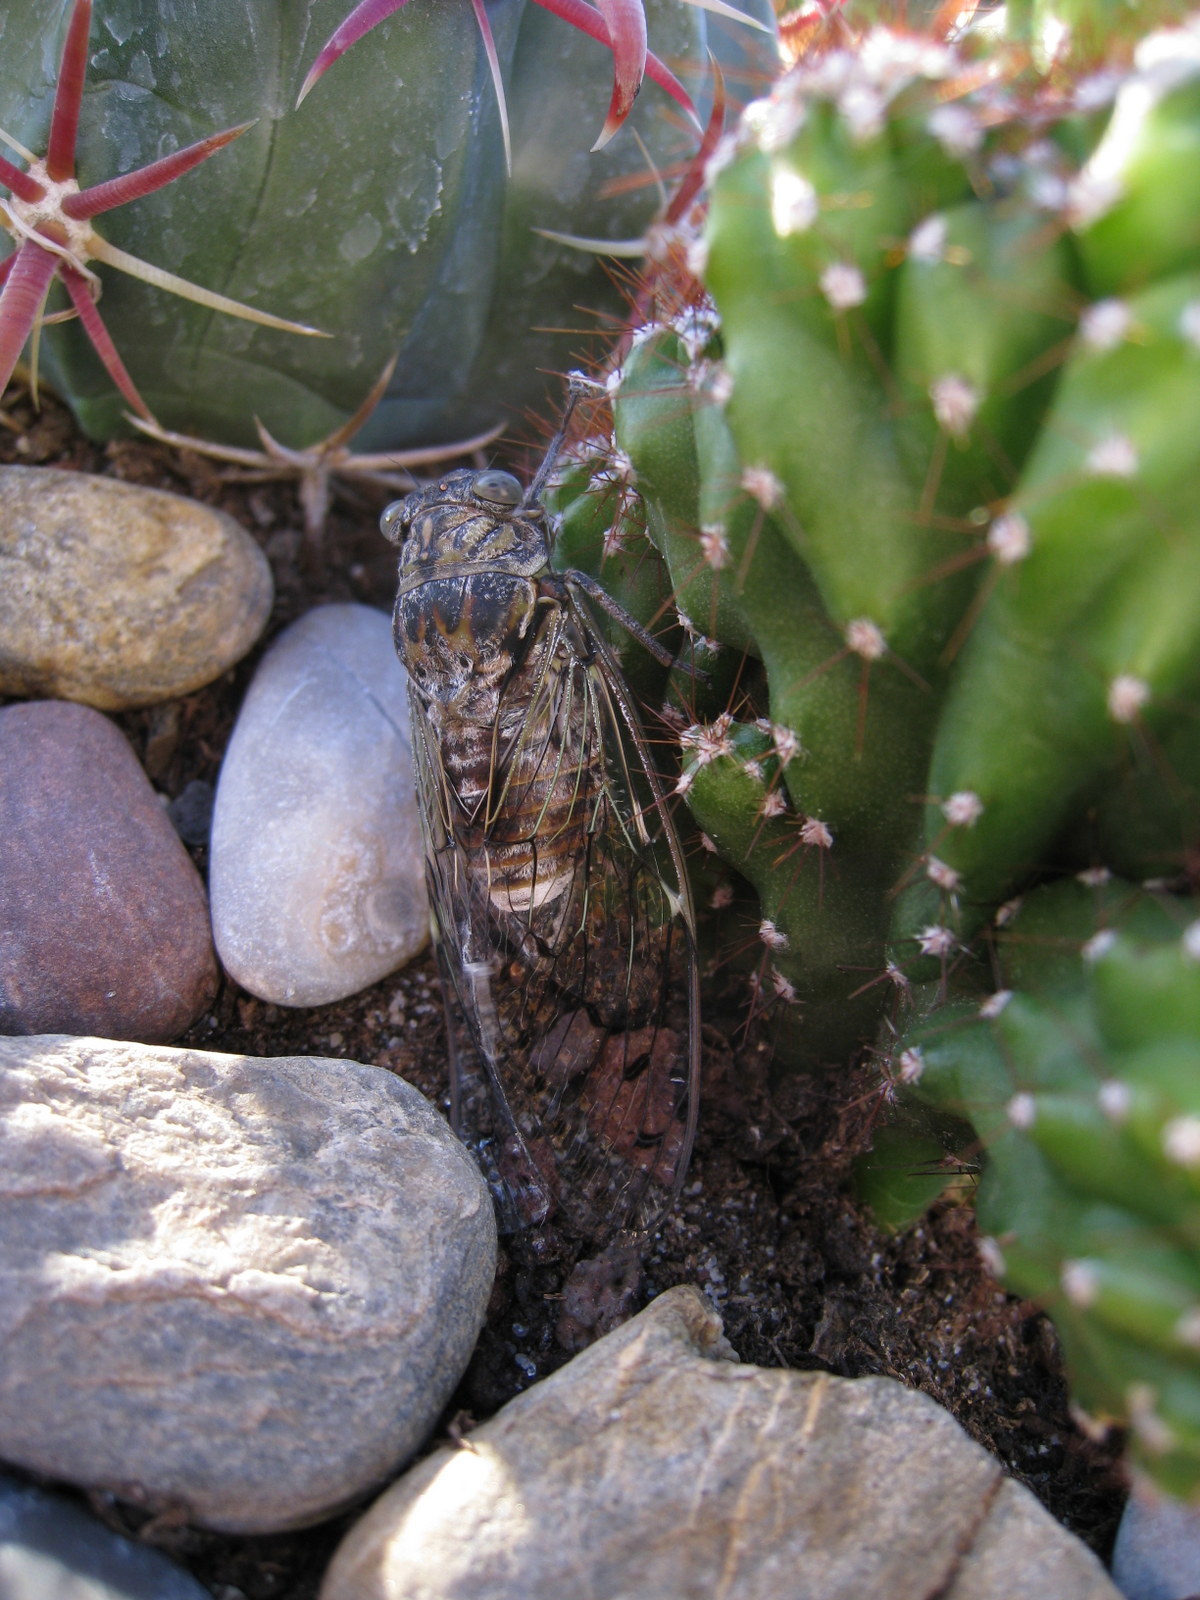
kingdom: Animalia
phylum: Arthropoda
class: Insecta
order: Hemiptera
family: Cicadidae
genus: Cicada
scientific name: Cicada orni
